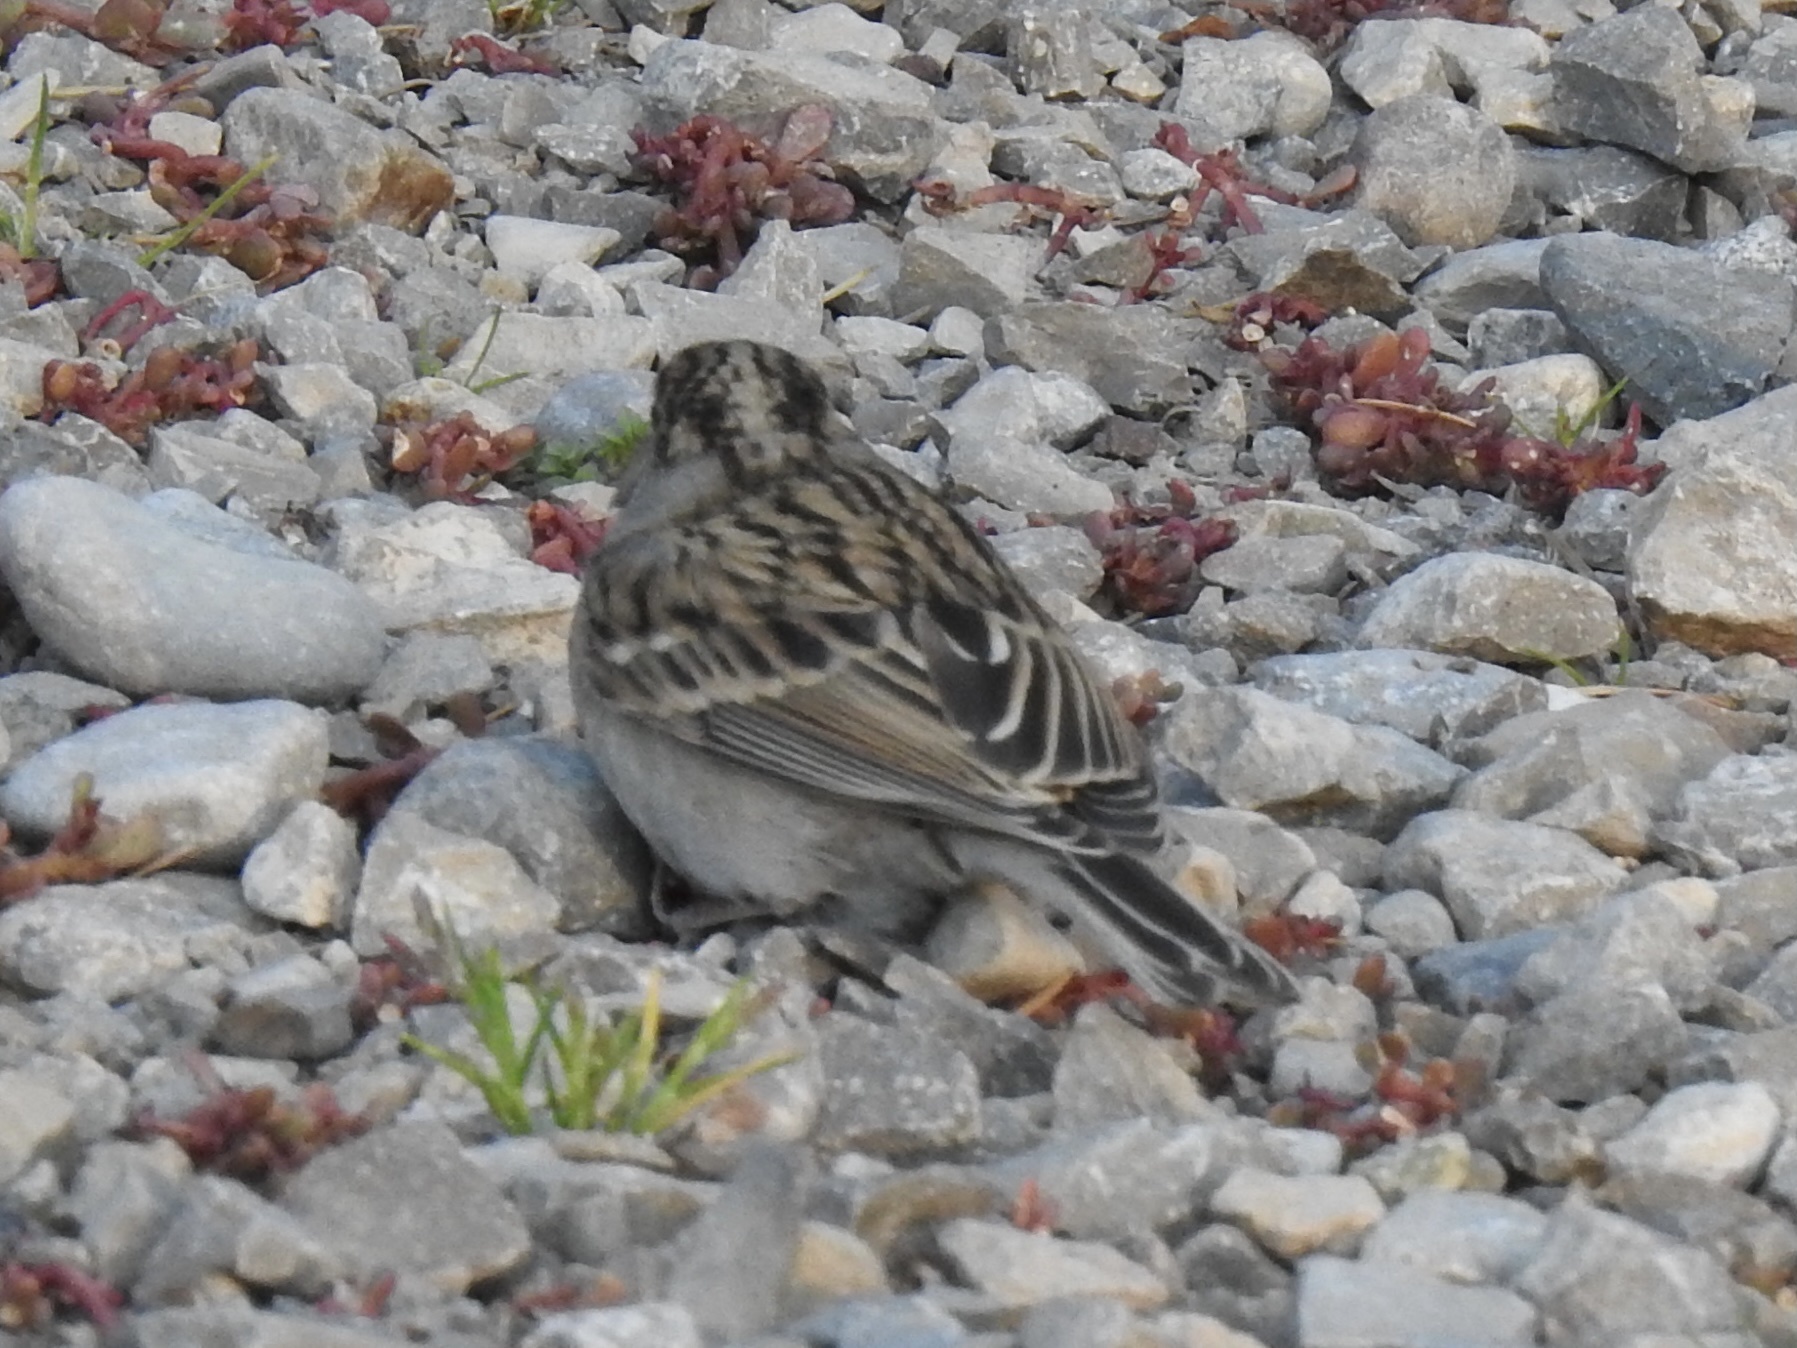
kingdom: Animalia
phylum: Chordata
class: Aves
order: Passeriformes
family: Passerellidae
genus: Spizella
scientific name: Spizella passerina
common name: Chipping sparrow
